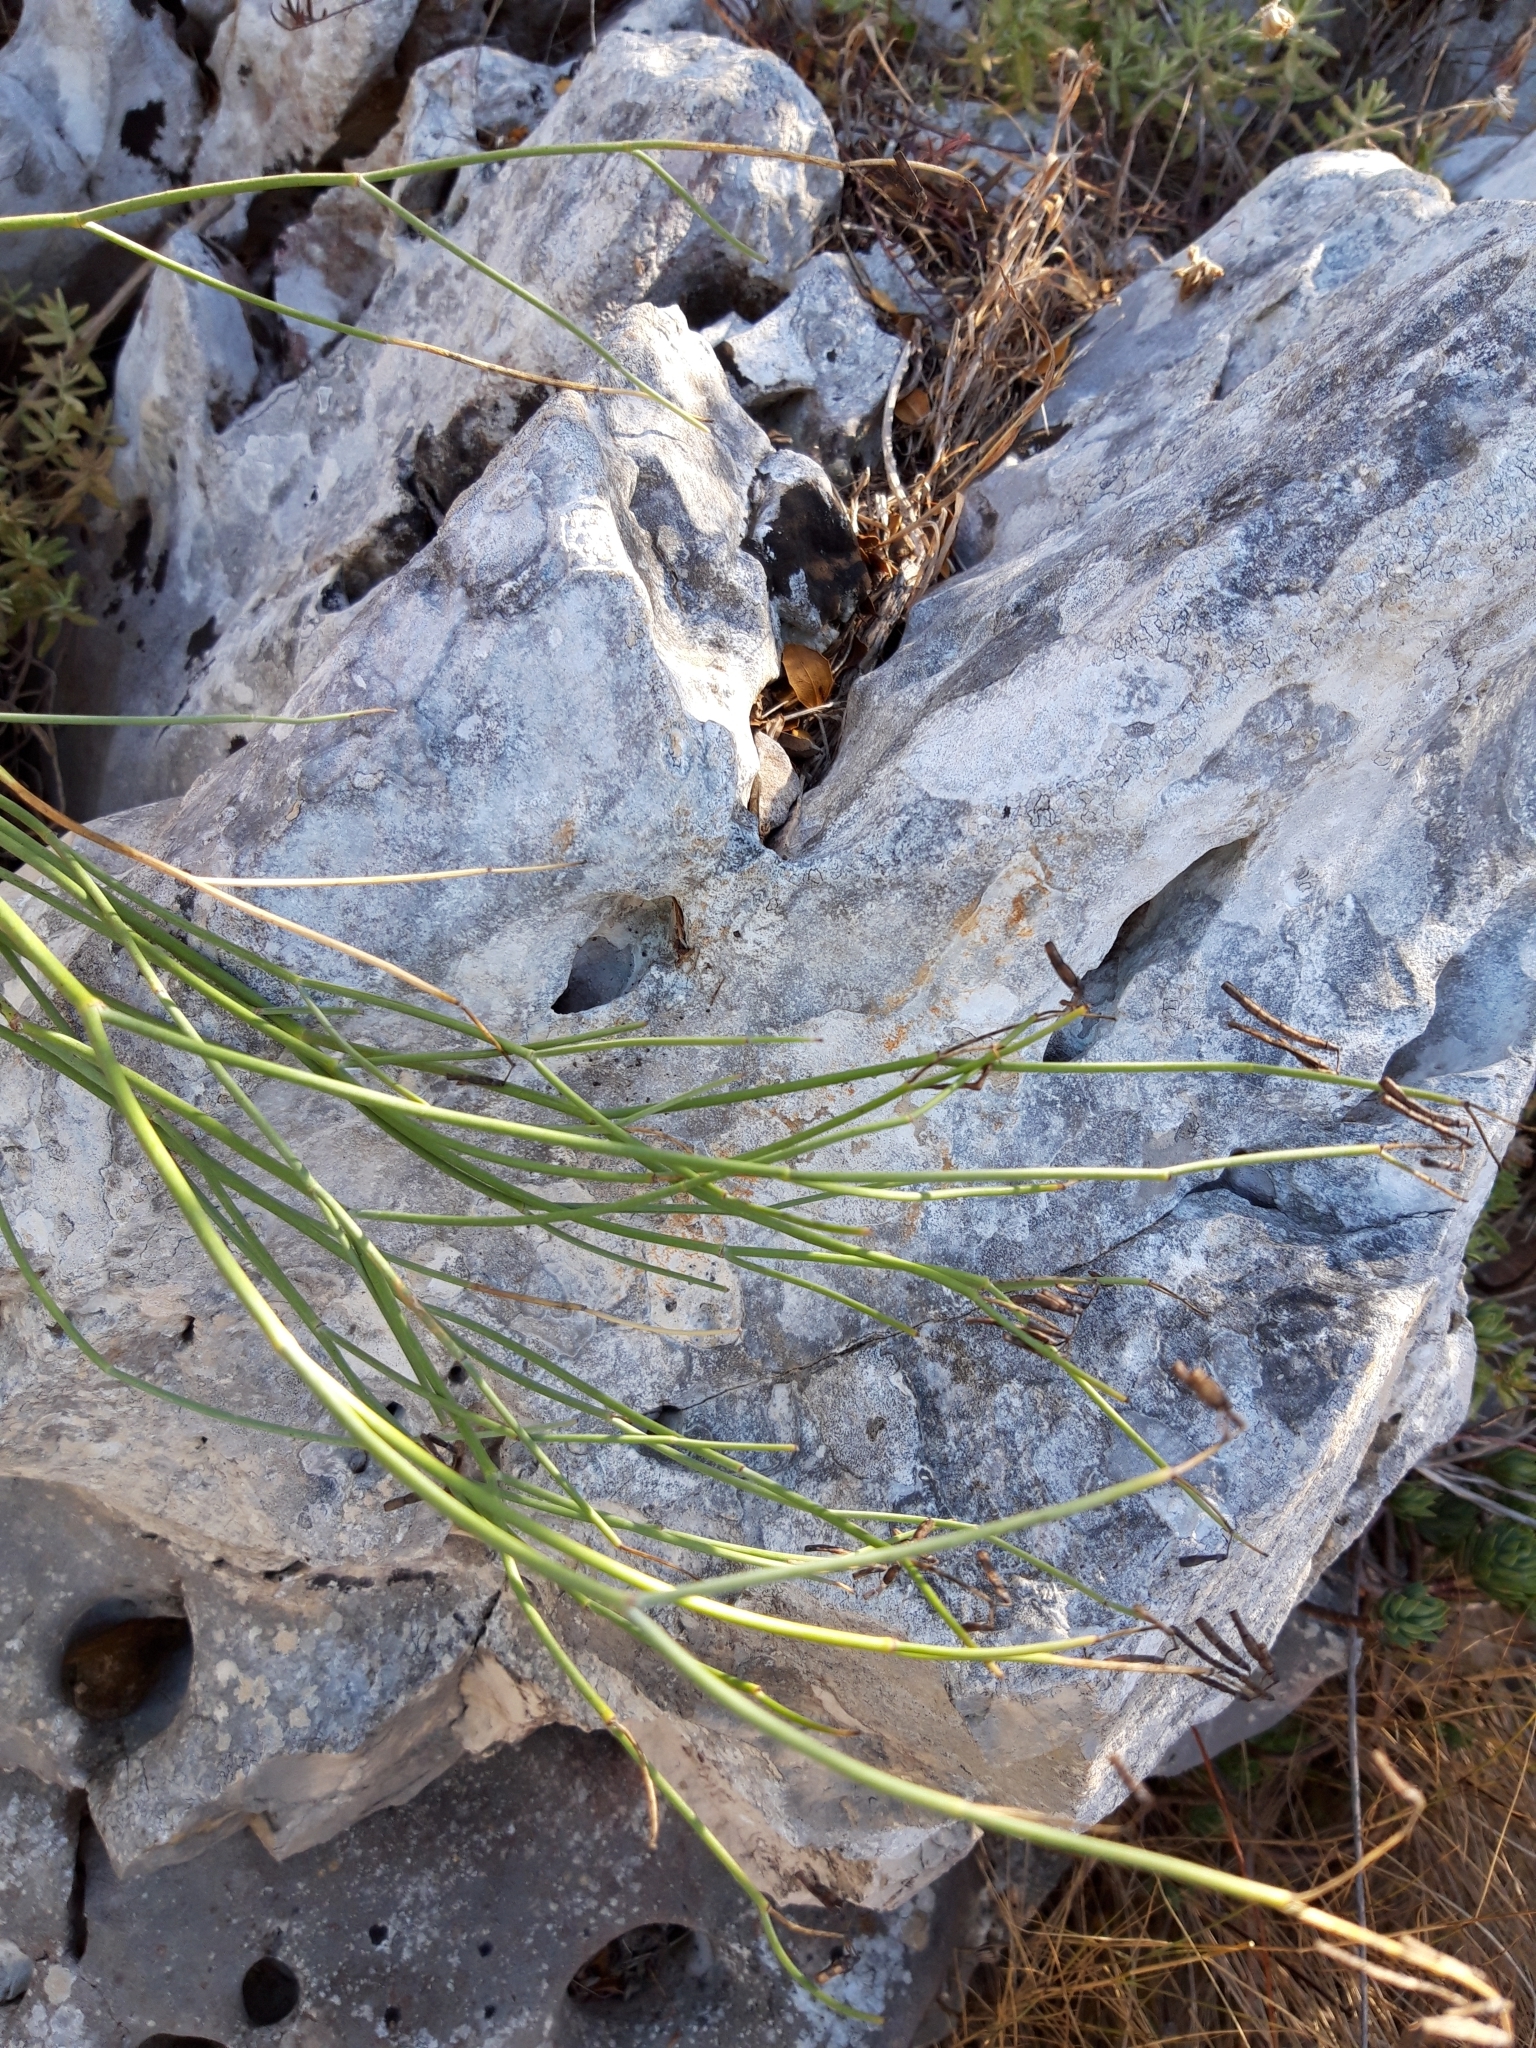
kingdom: Plantae
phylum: Tracheophyta
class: Magnoliopsida
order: Fabales
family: Fabaceae
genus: Coronilla
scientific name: Coronilla juncea
